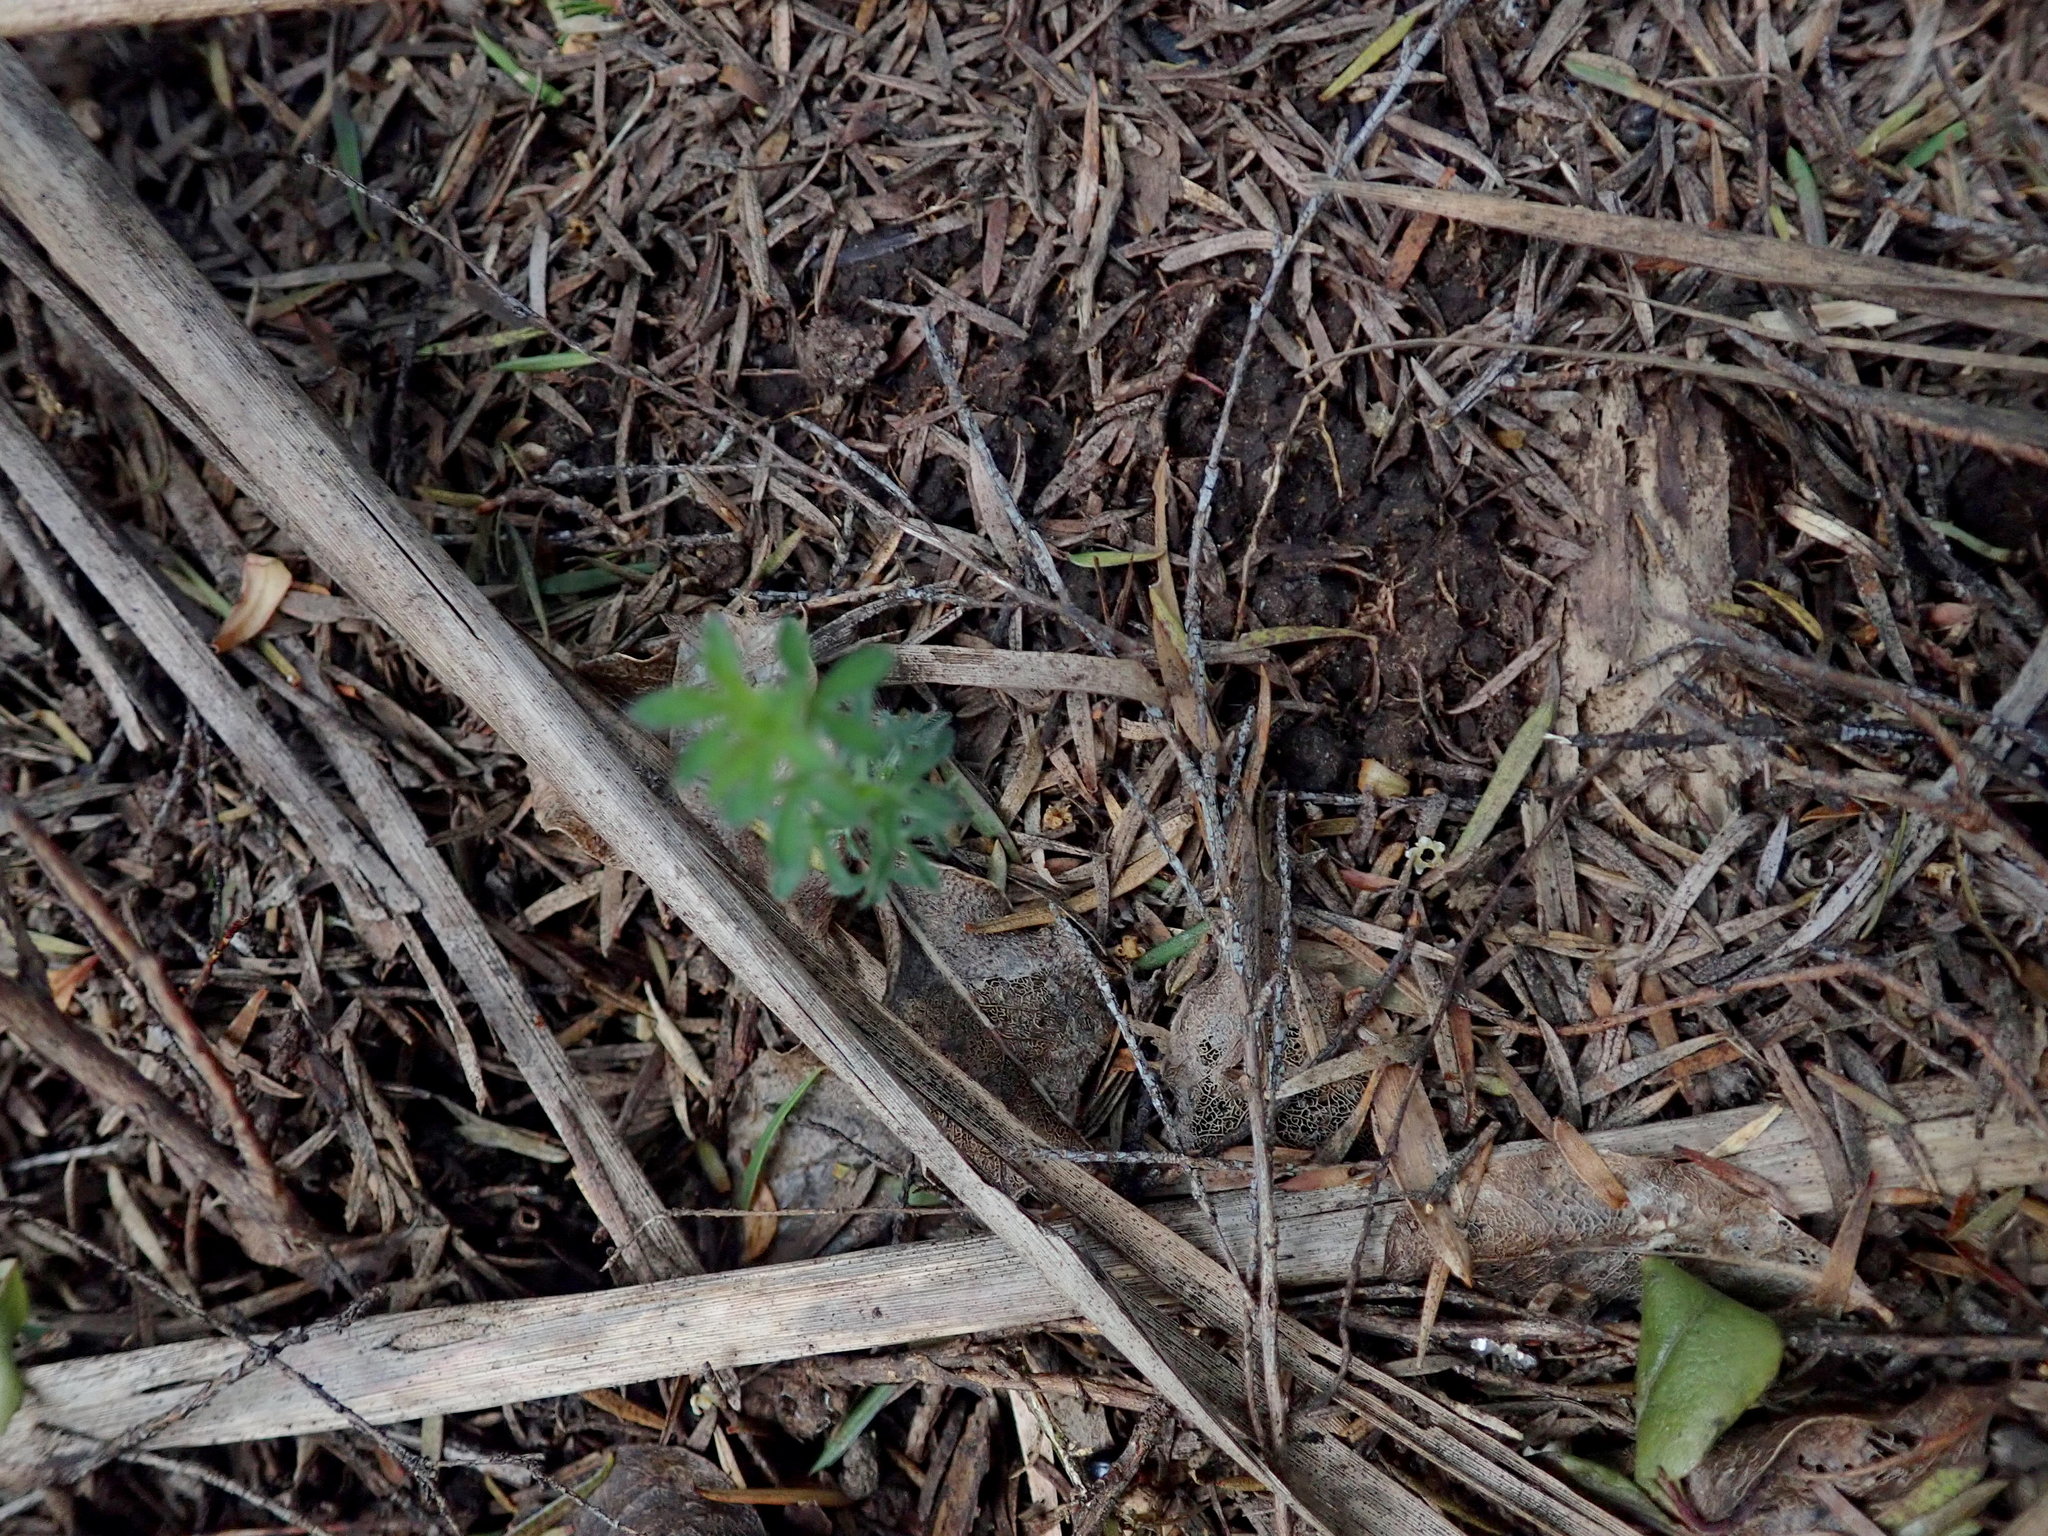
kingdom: Plantae
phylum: Tracheophyta
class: Magnoliopsida
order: Fabales
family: Fabaceae
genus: Ulex
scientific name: Ulex europaeus
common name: Common gorse
